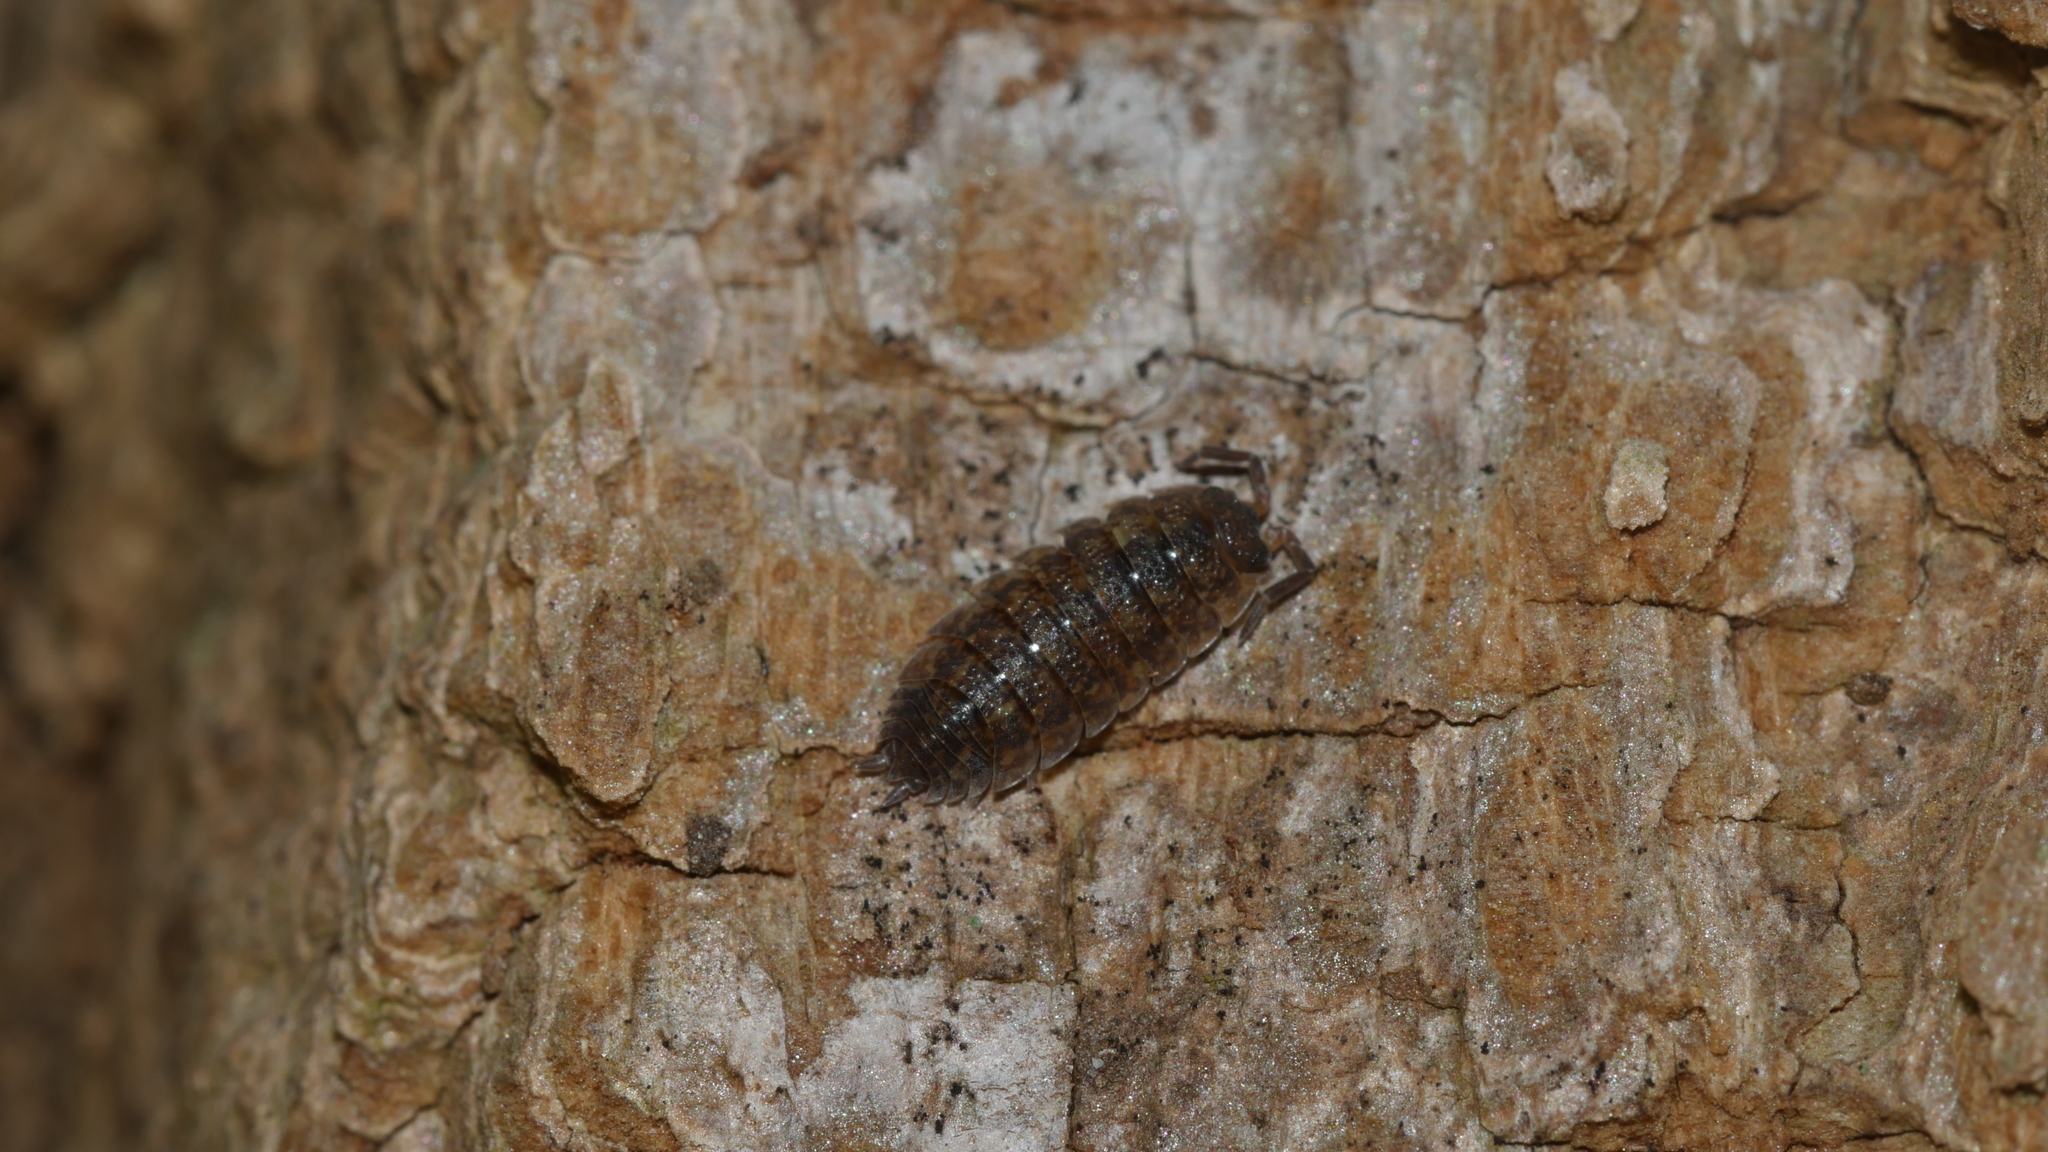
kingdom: Animalia
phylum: Arthropoda
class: Malacostraca
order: Isopoda
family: Porcellionidae
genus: Porcellio
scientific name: Porcellio scaber
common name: Common rough woodlouse
